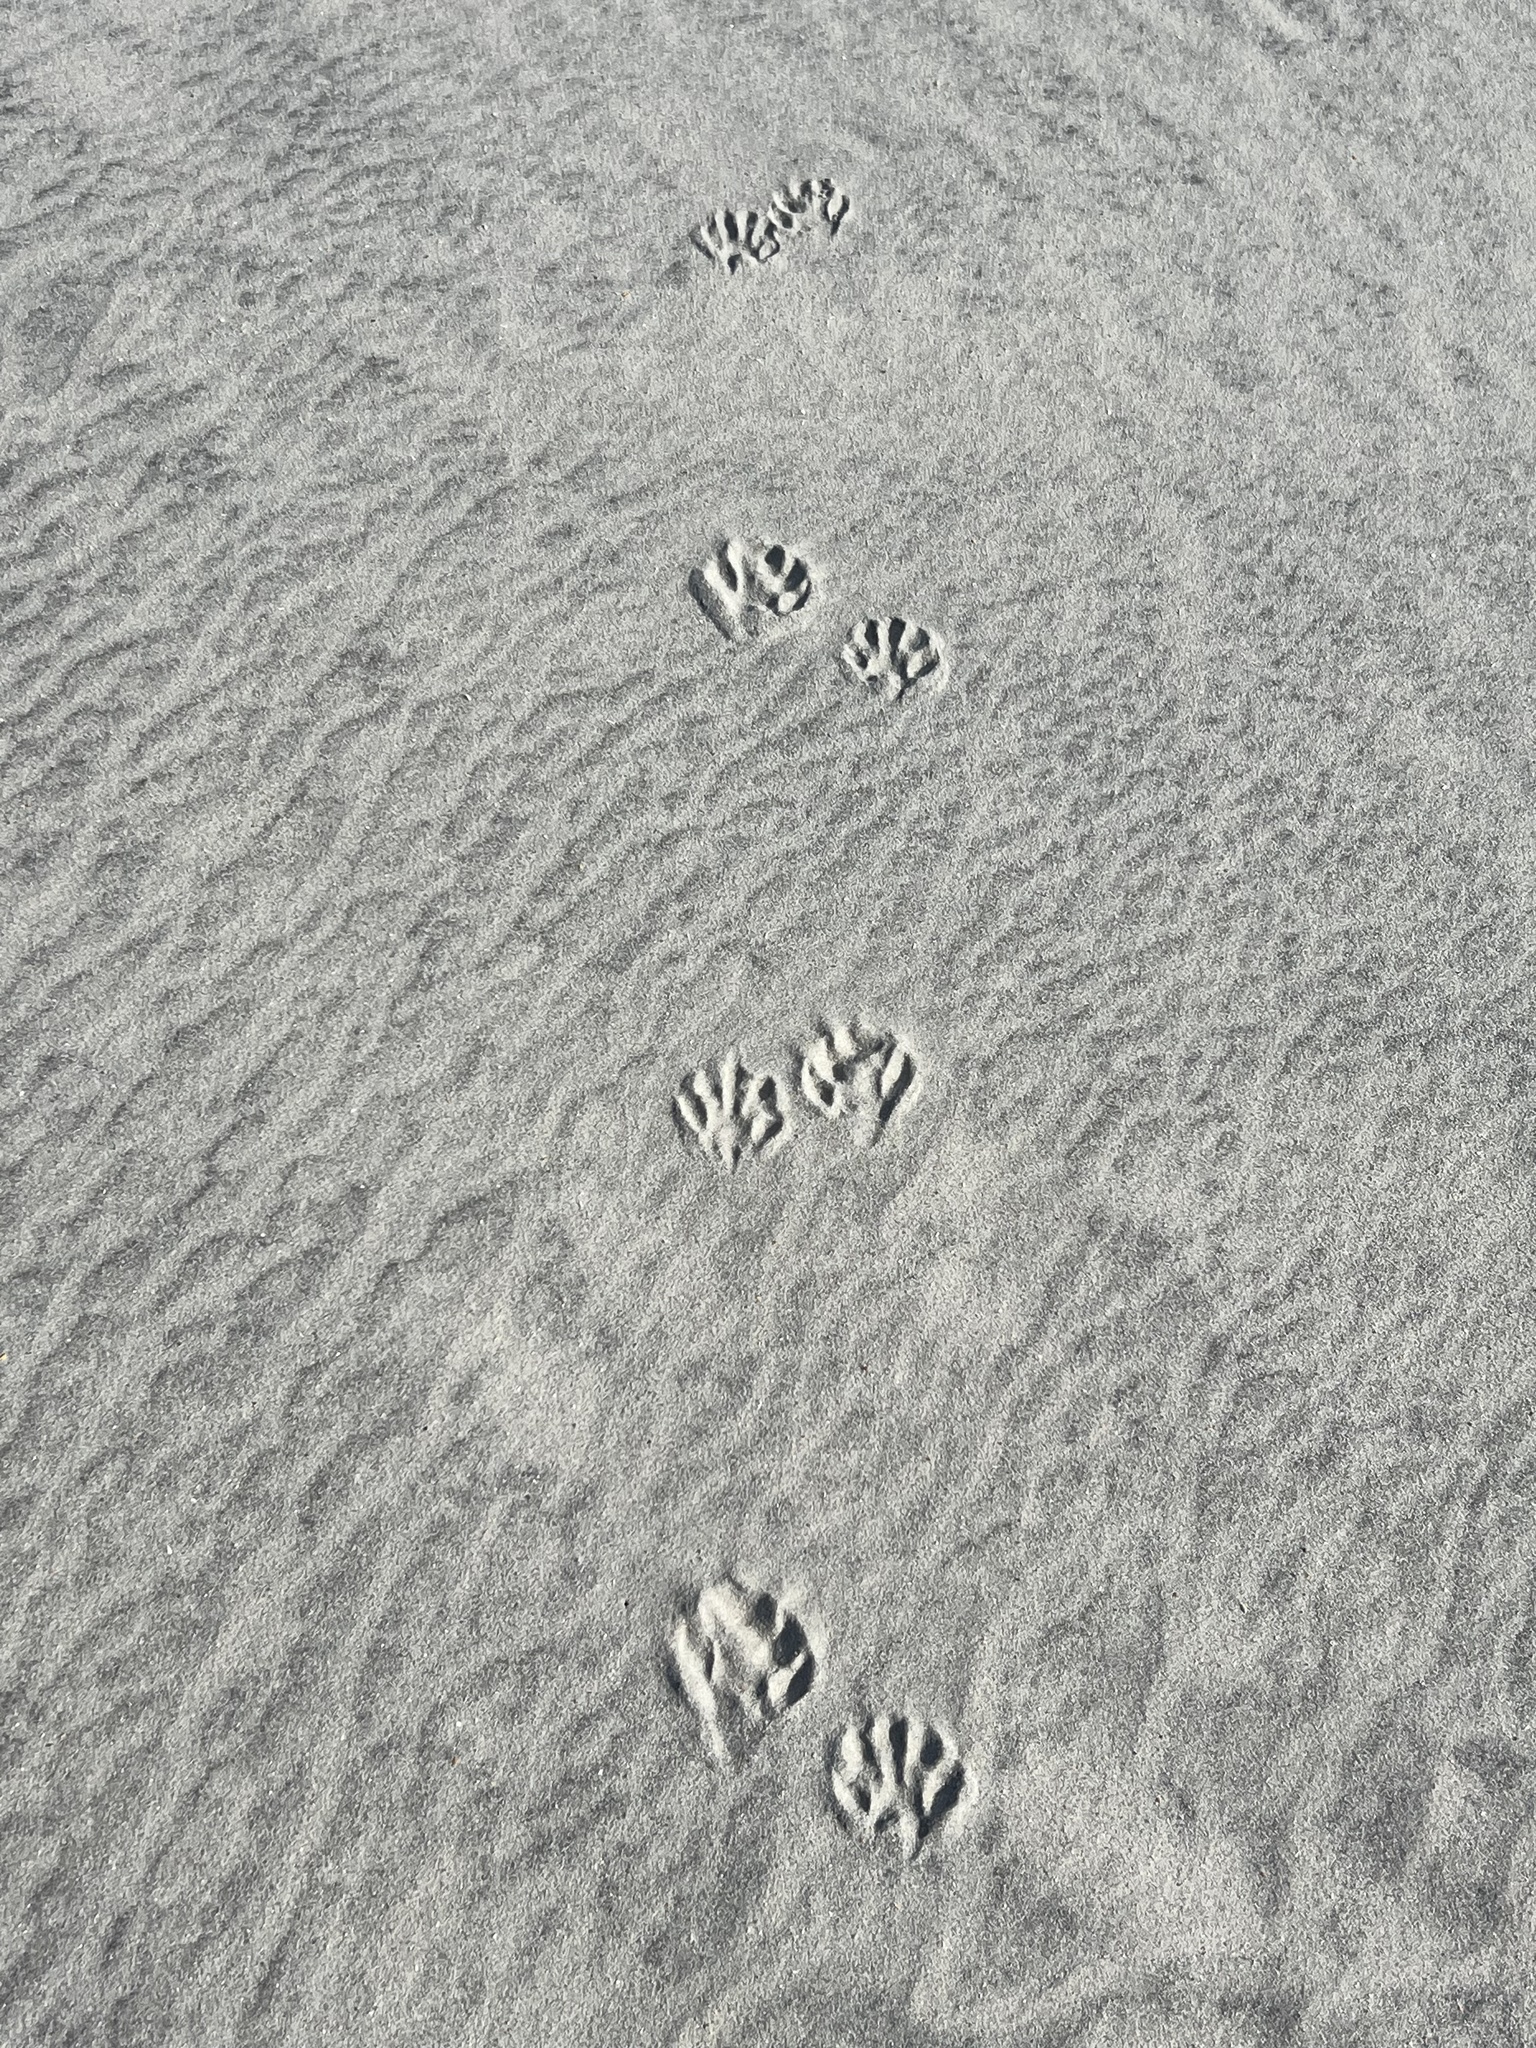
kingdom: Animalia
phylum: Chordata
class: Mammalia
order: Carnivora
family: Procyonidae
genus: Procyon
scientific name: Procyon lotor
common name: Raccoon
